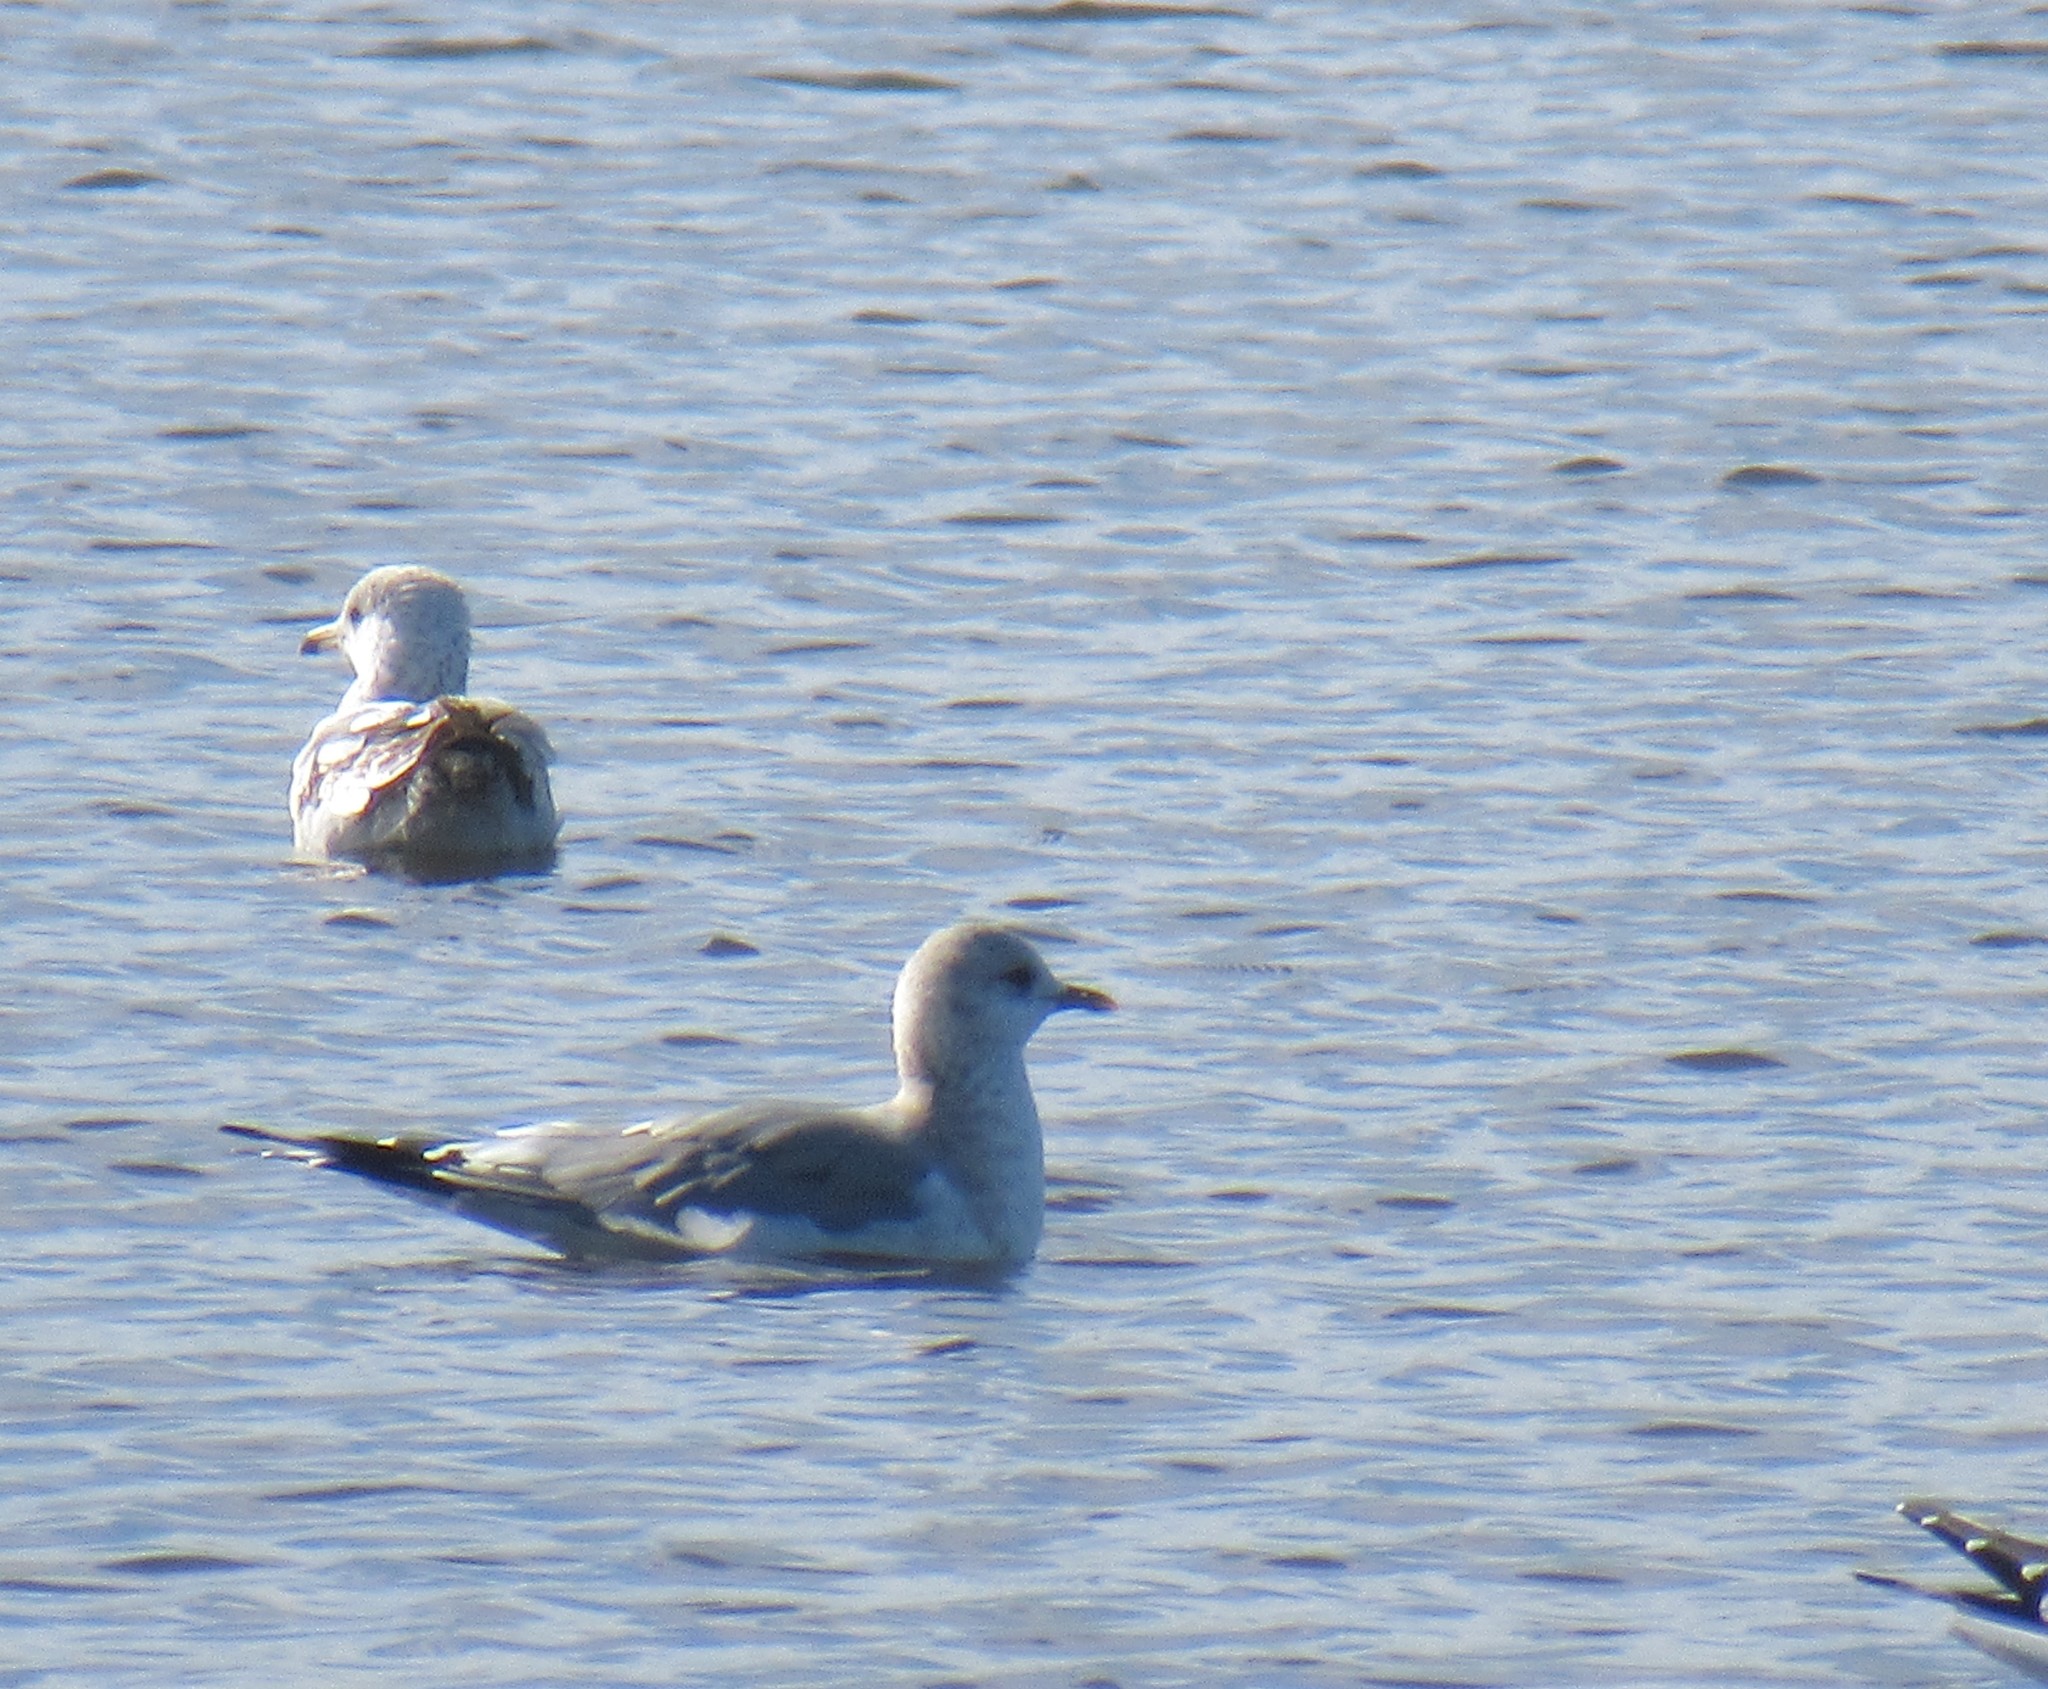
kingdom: Animalia
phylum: Chordata
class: Aves
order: Charadriiformes
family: Laridae
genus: Larus
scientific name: Larus brachyrhynchus
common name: Short-billed gull
